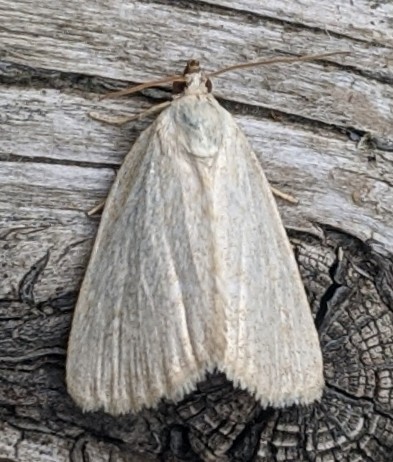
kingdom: Animalia
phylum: Arthropoda
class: Insecta
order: Lepidoptera
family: Noctuidae
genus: Protodeltote
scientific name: Protodeltote albidula
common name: Pale glyph
